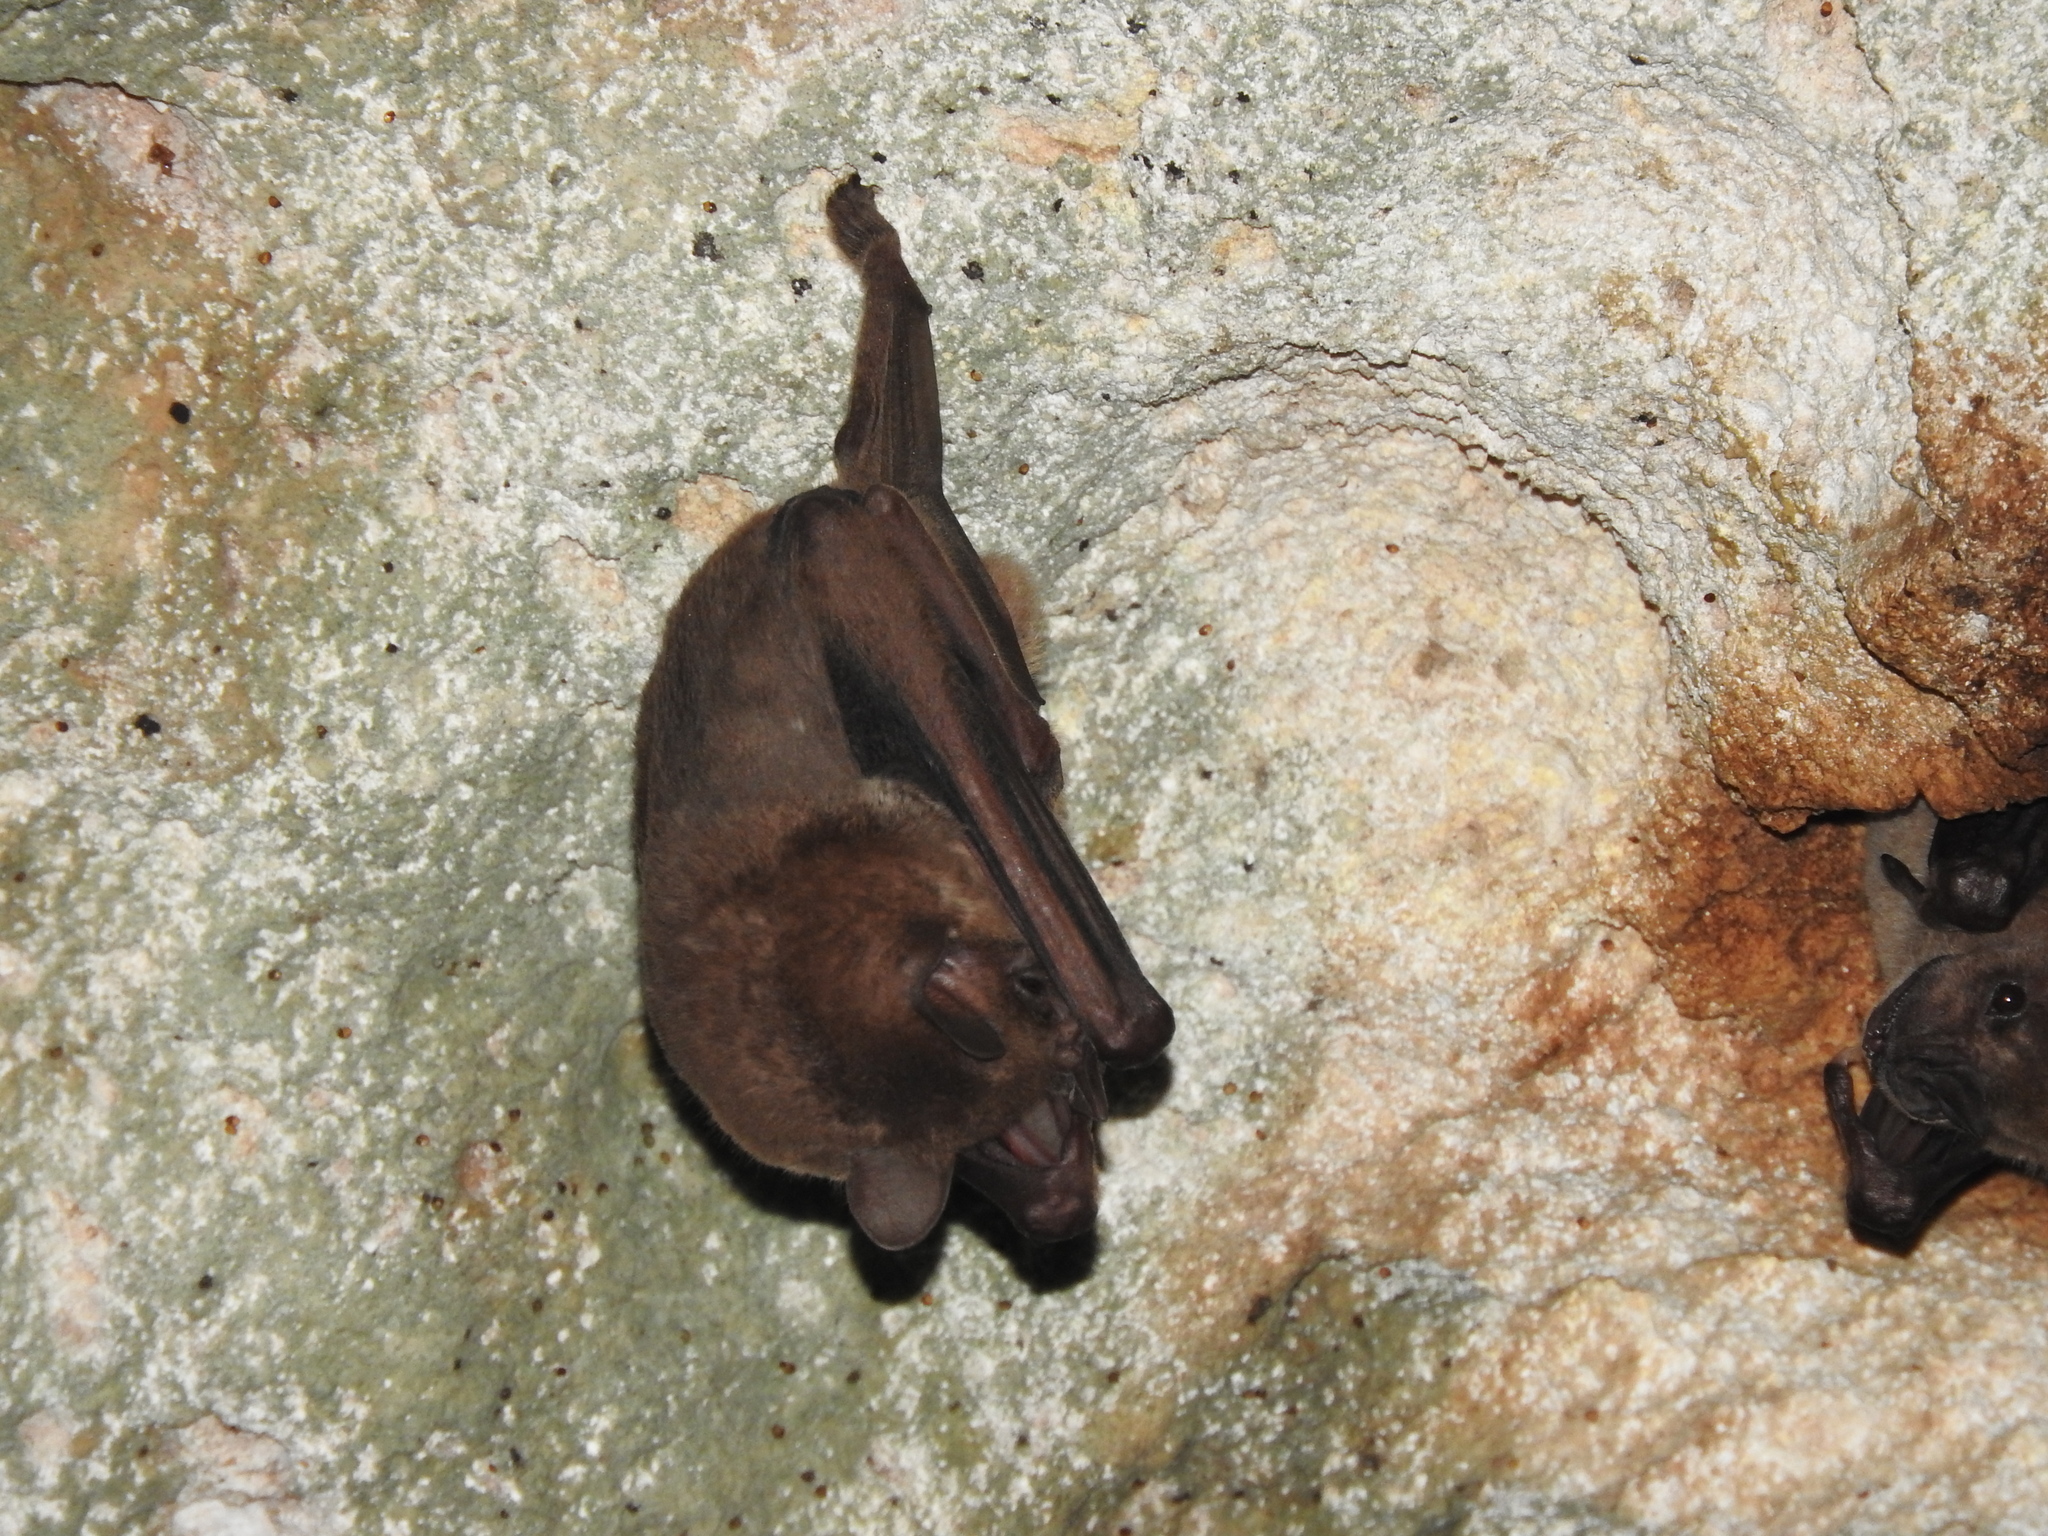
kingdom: Animalia
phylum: Chordata
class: Mammalia
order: Chiroptera
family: Phyllostomidae
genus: Artibeus
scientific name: Artibeus jamaicensis
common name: Jamaican fruit-eating bat
